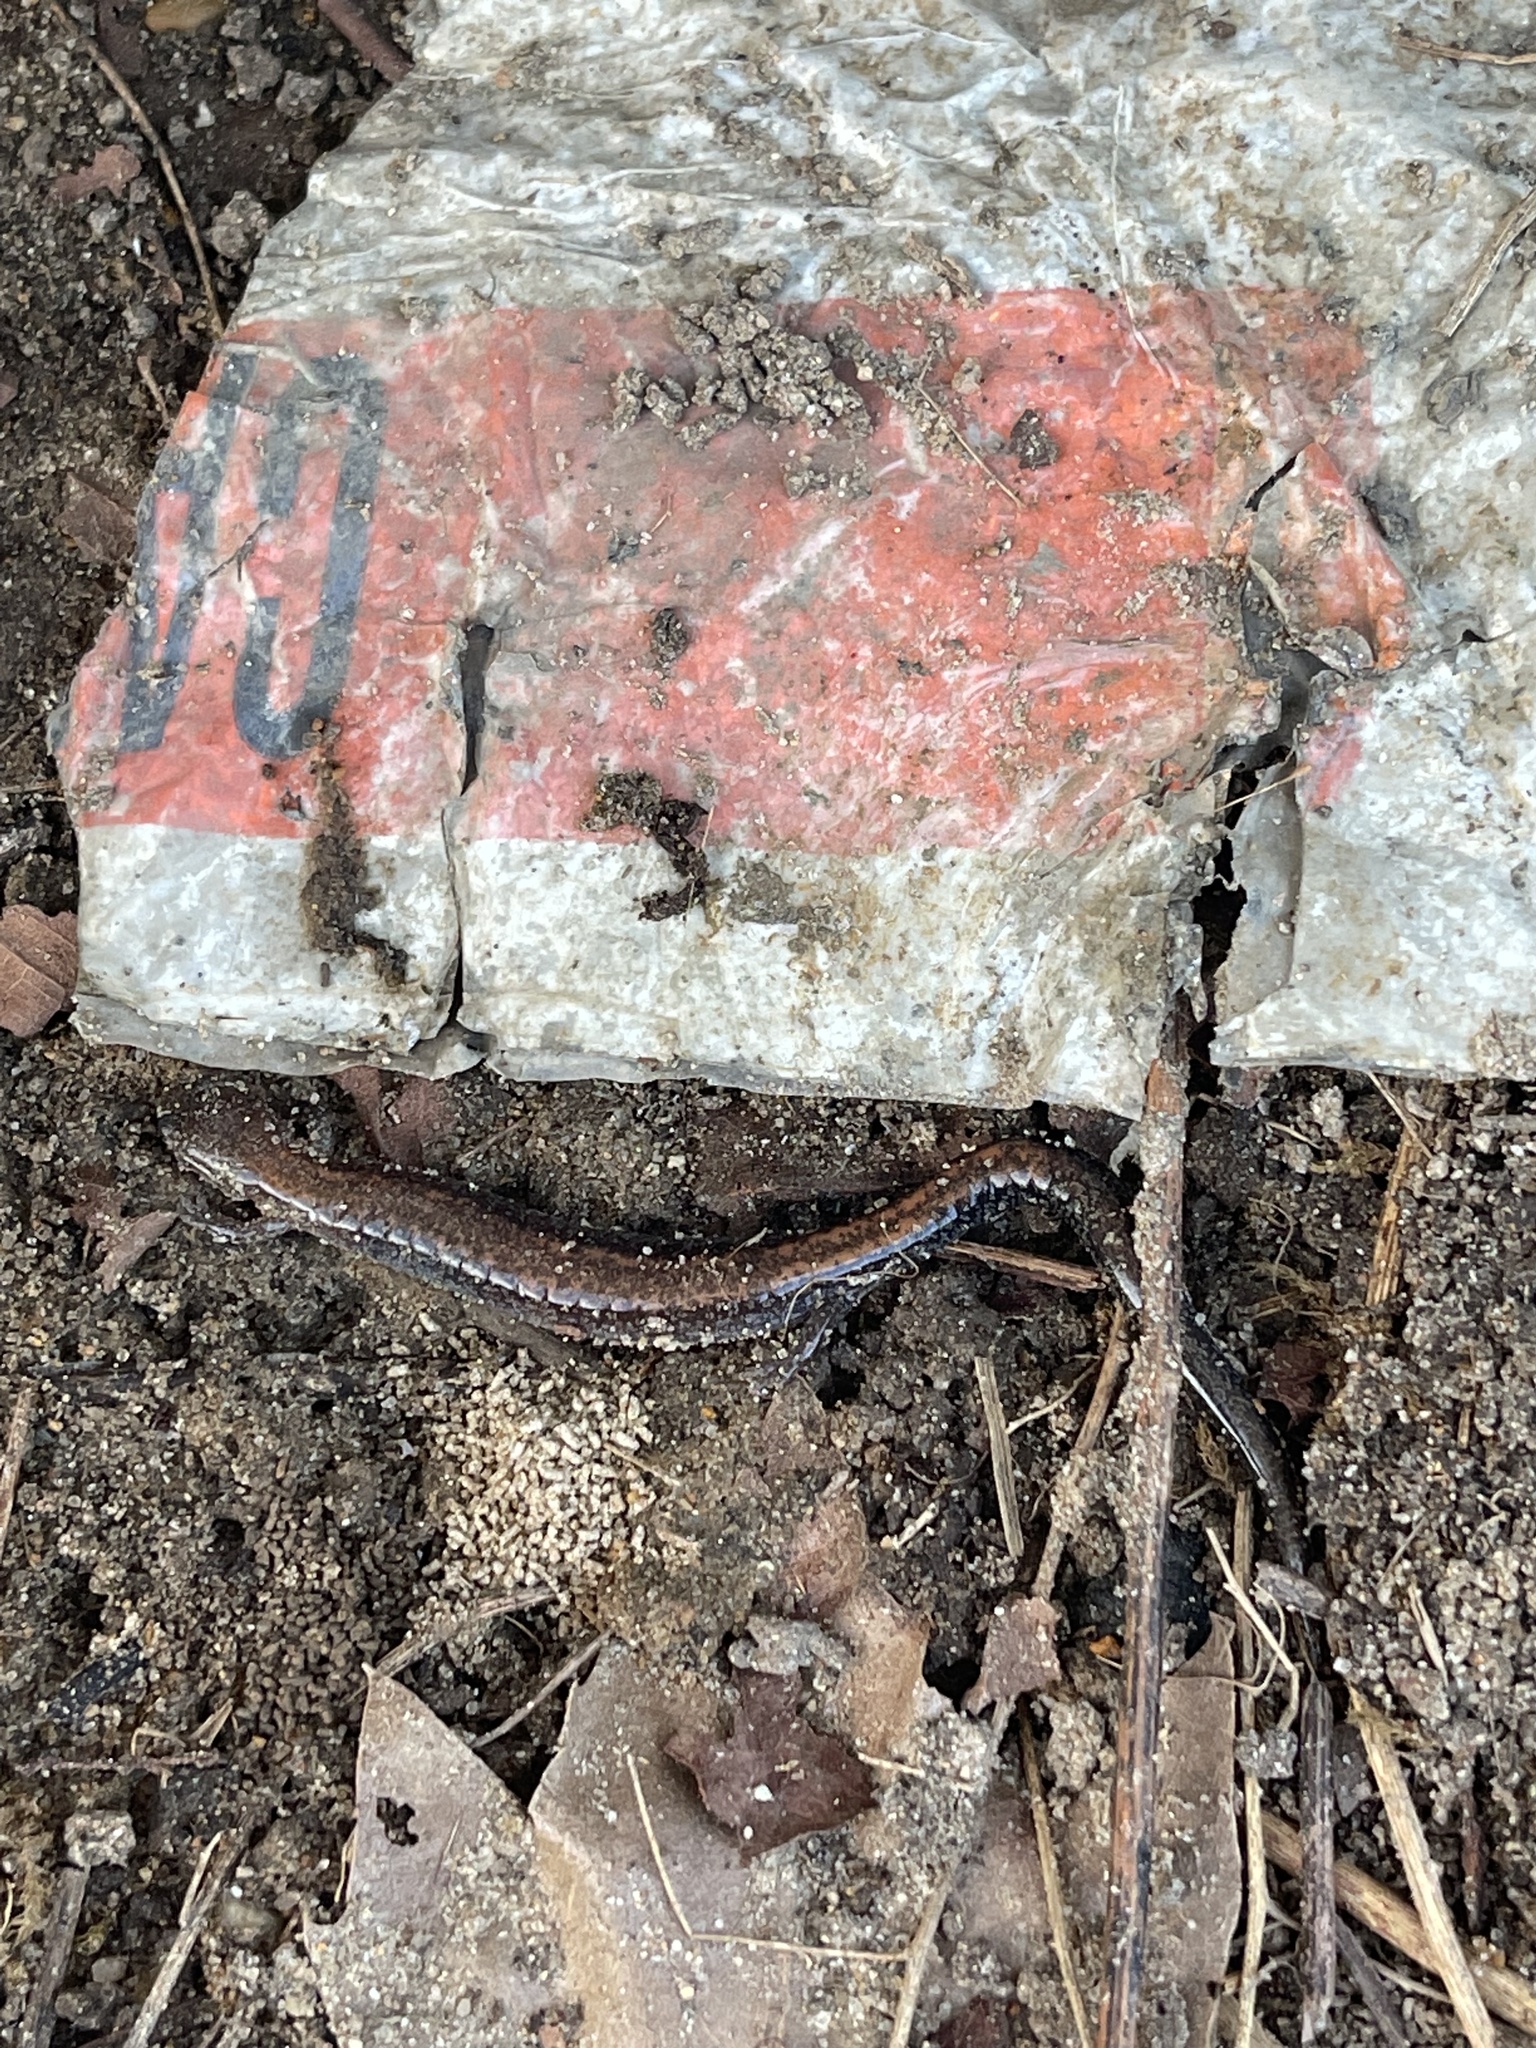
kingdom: Animalia
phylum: Chordata
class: Amphibia
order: Caudata
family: Plethodontidae
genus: Plethodon
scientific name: Plethodon cinereus
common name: Redback salamander
